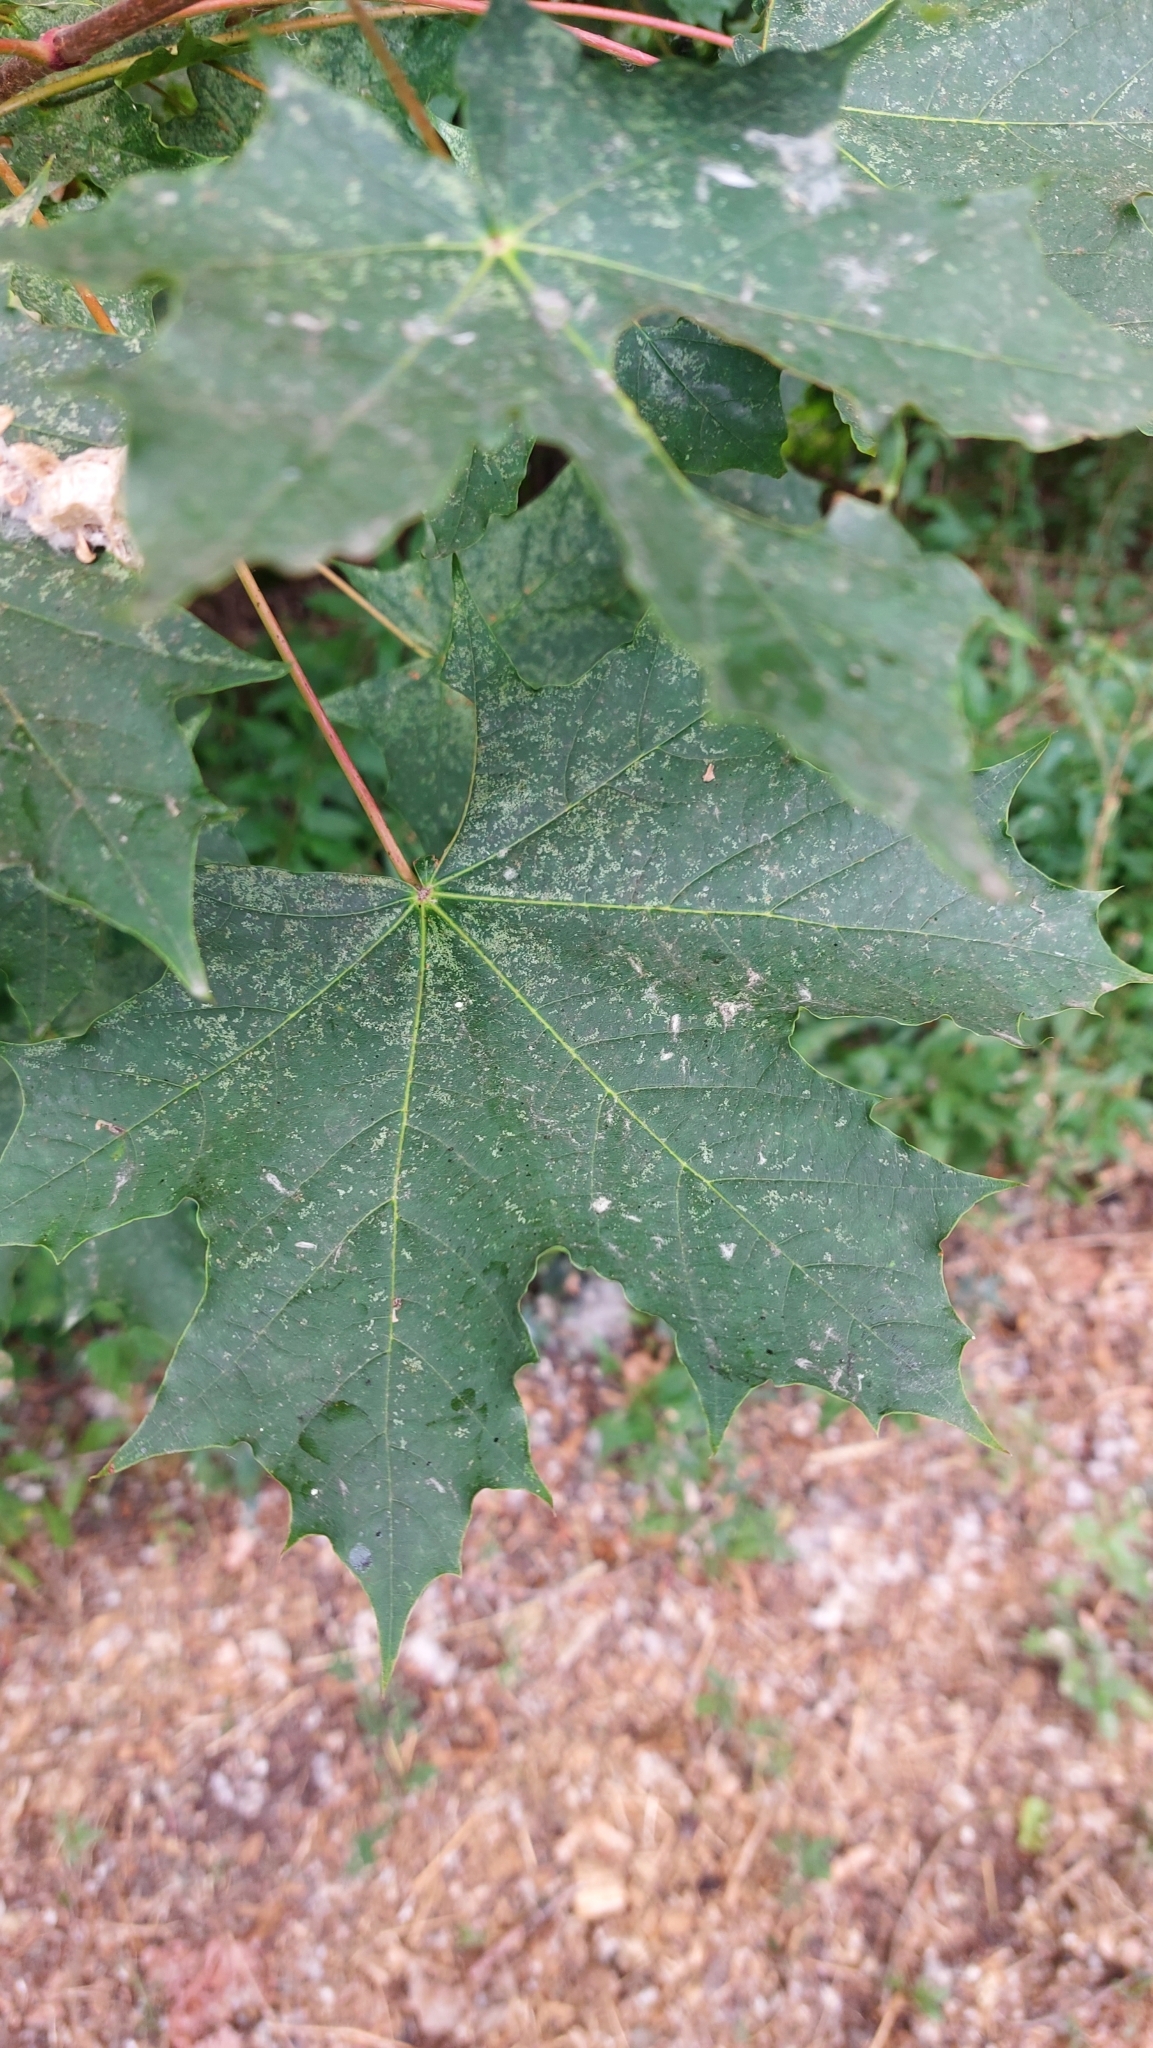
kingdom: Plantae
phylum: Tracheophyta
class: Magnoliopsida
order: Sapindales
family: Sapindaceae
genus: Acer
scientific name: Acer platanoides
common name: Norway maple
